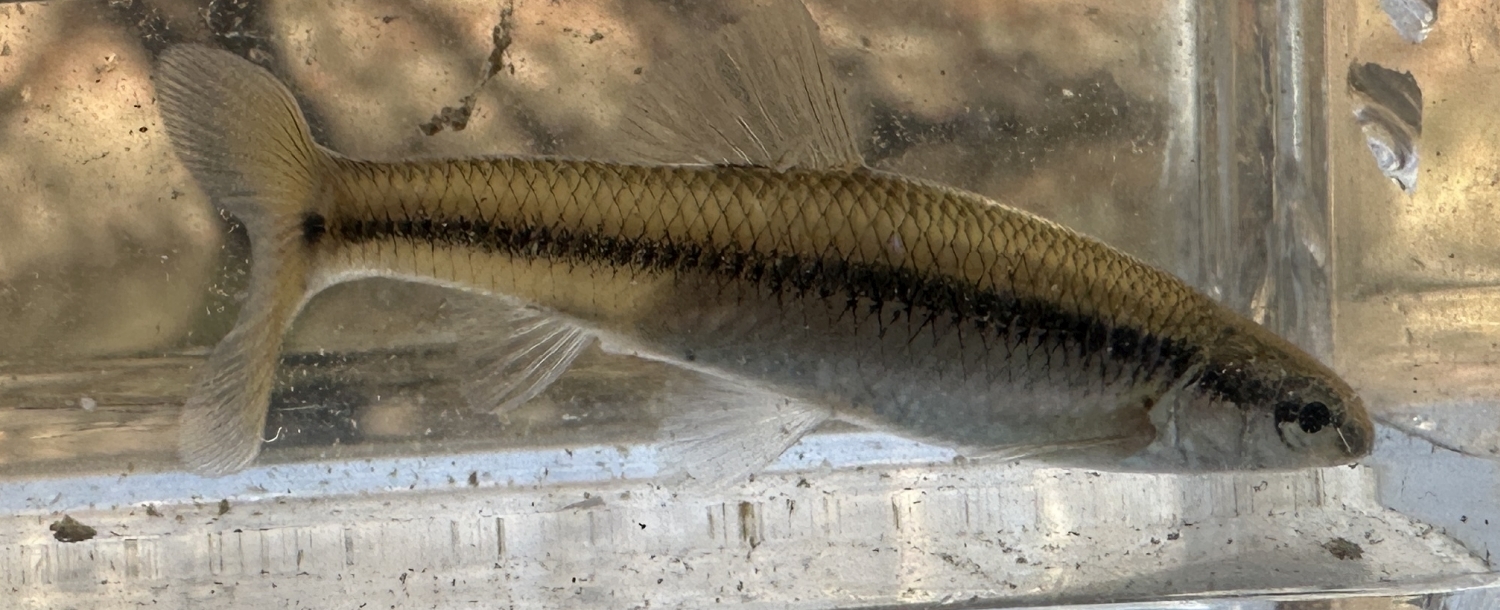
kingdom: Animalia
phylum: Chordata
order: Cypriniformes
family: Cyprinidae
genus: Pimephales
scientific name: Pimephales notatus
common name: Bluntnose minnow
